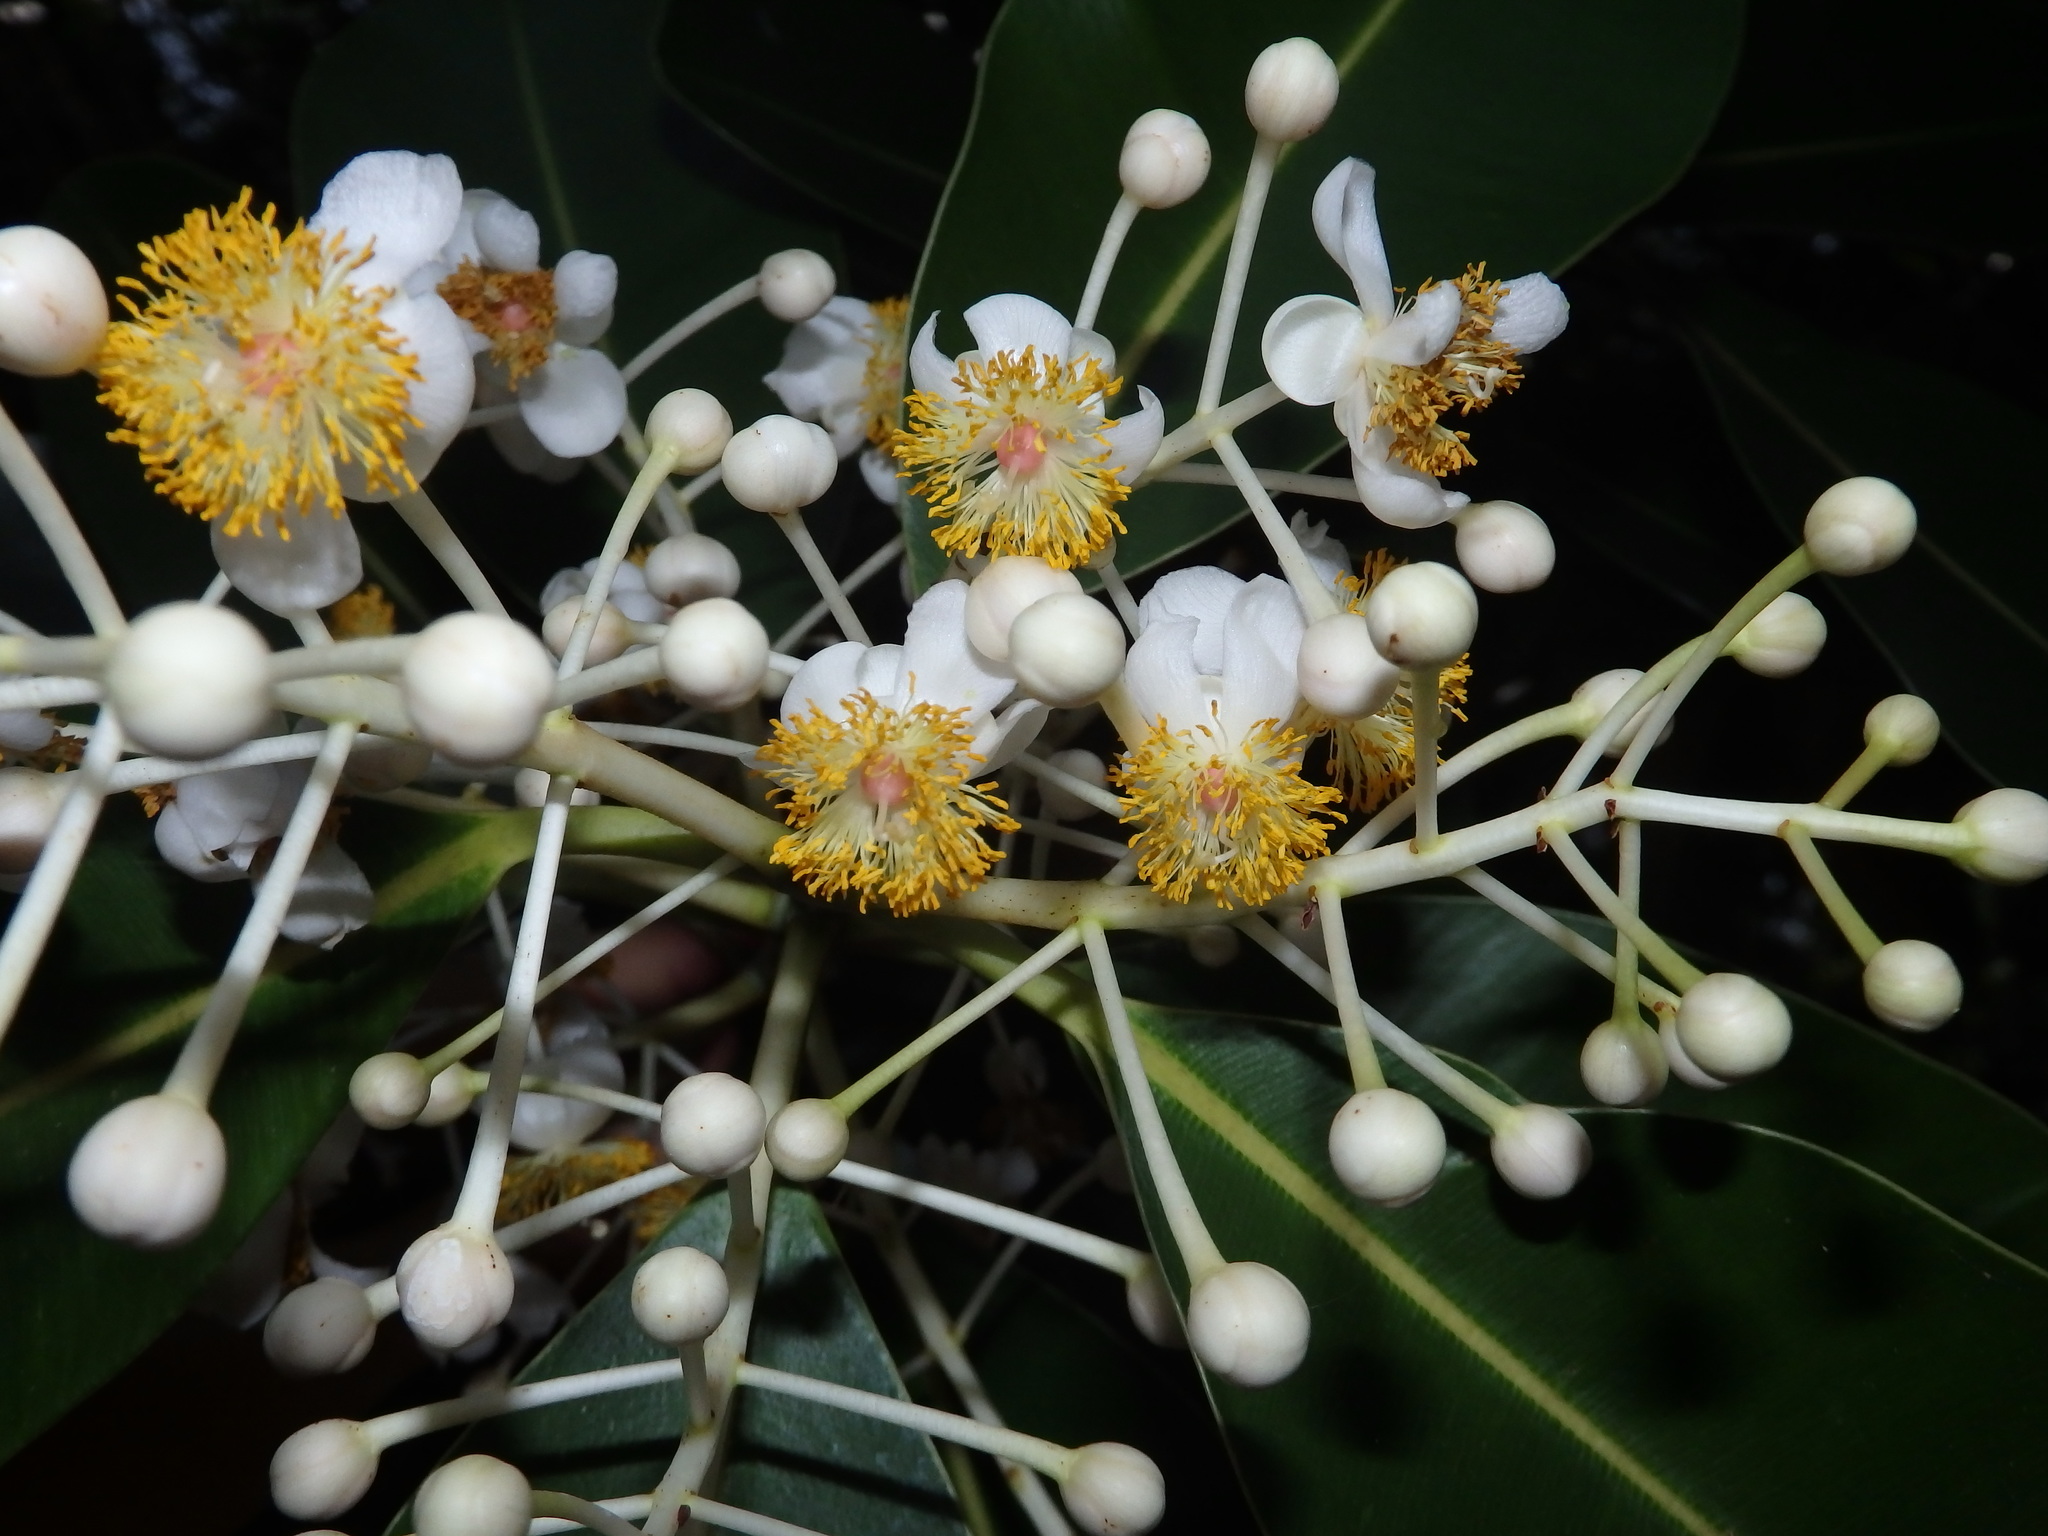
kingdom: Plantae
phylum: Tracheophyta
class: Magnoliopsida
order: Malpighiales
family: Calophyllaceae
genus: Calophyllum
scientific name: Calophyllum inophyllum
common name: Alexandrian laurel
